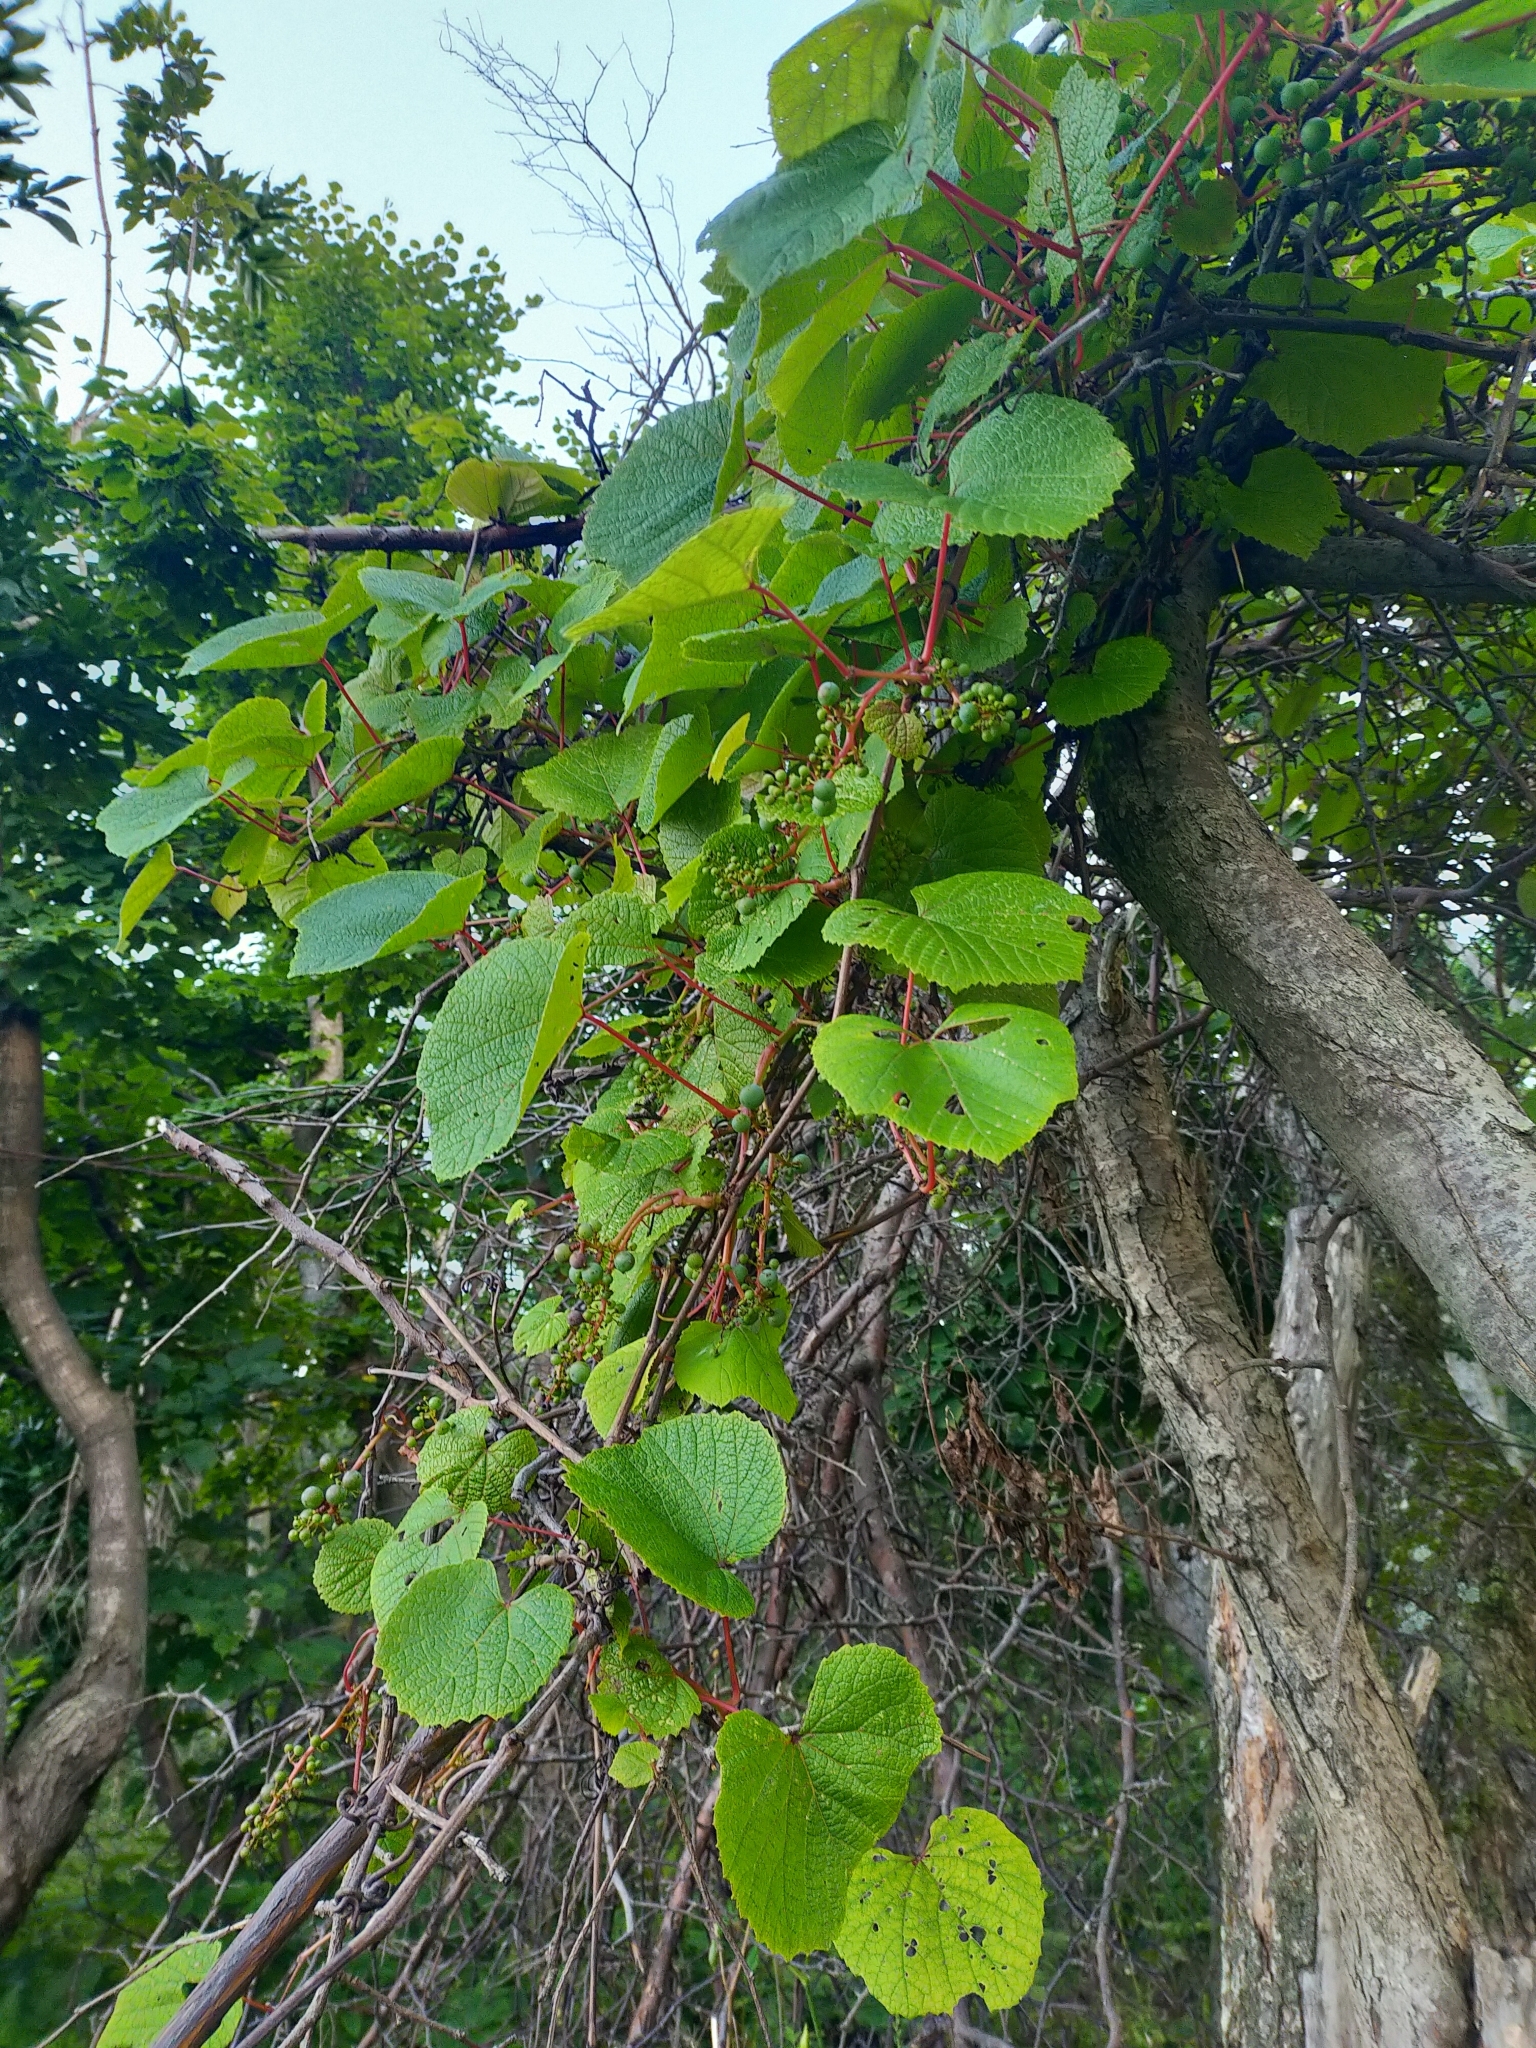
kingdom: Plantae
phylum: Tracheophyta
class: Magnoliopsida
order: Vitales
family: Vitaceae
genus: Vitis
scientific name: Vitis amurensis
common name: Amur grape
